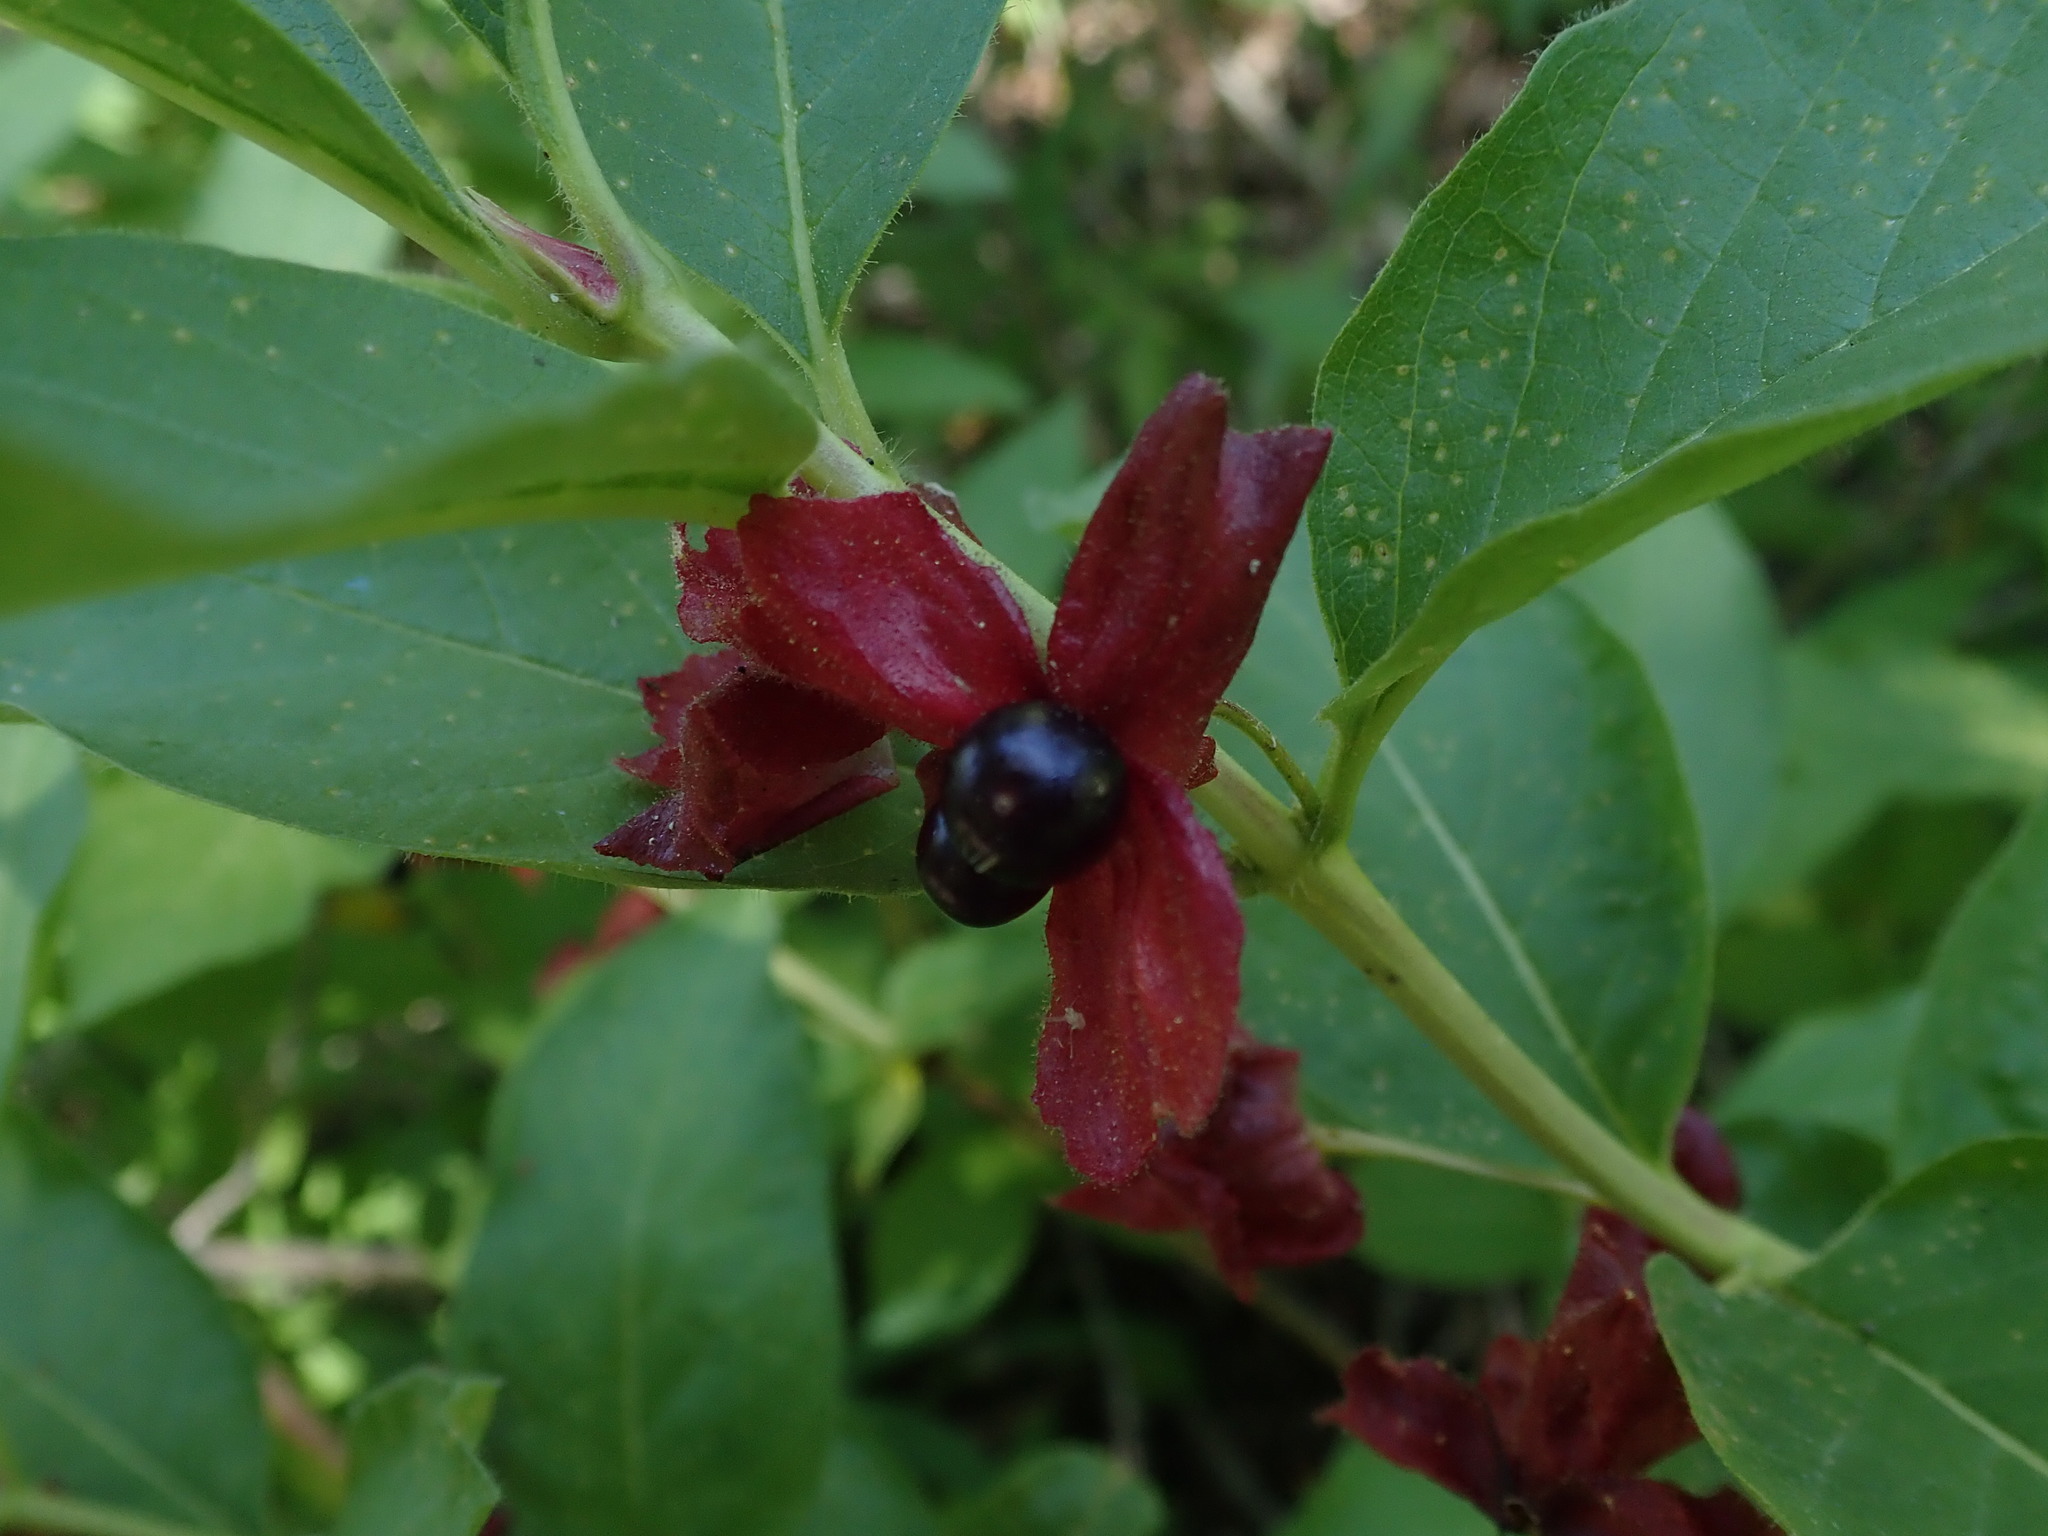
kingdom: Plantae
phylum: Tracheophyta
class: Magnoliopsida
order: Dipsacales
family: Caprifoliaceae
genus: Lonicera
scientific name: Lonicera involucrata
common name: Californian honeysuckle
